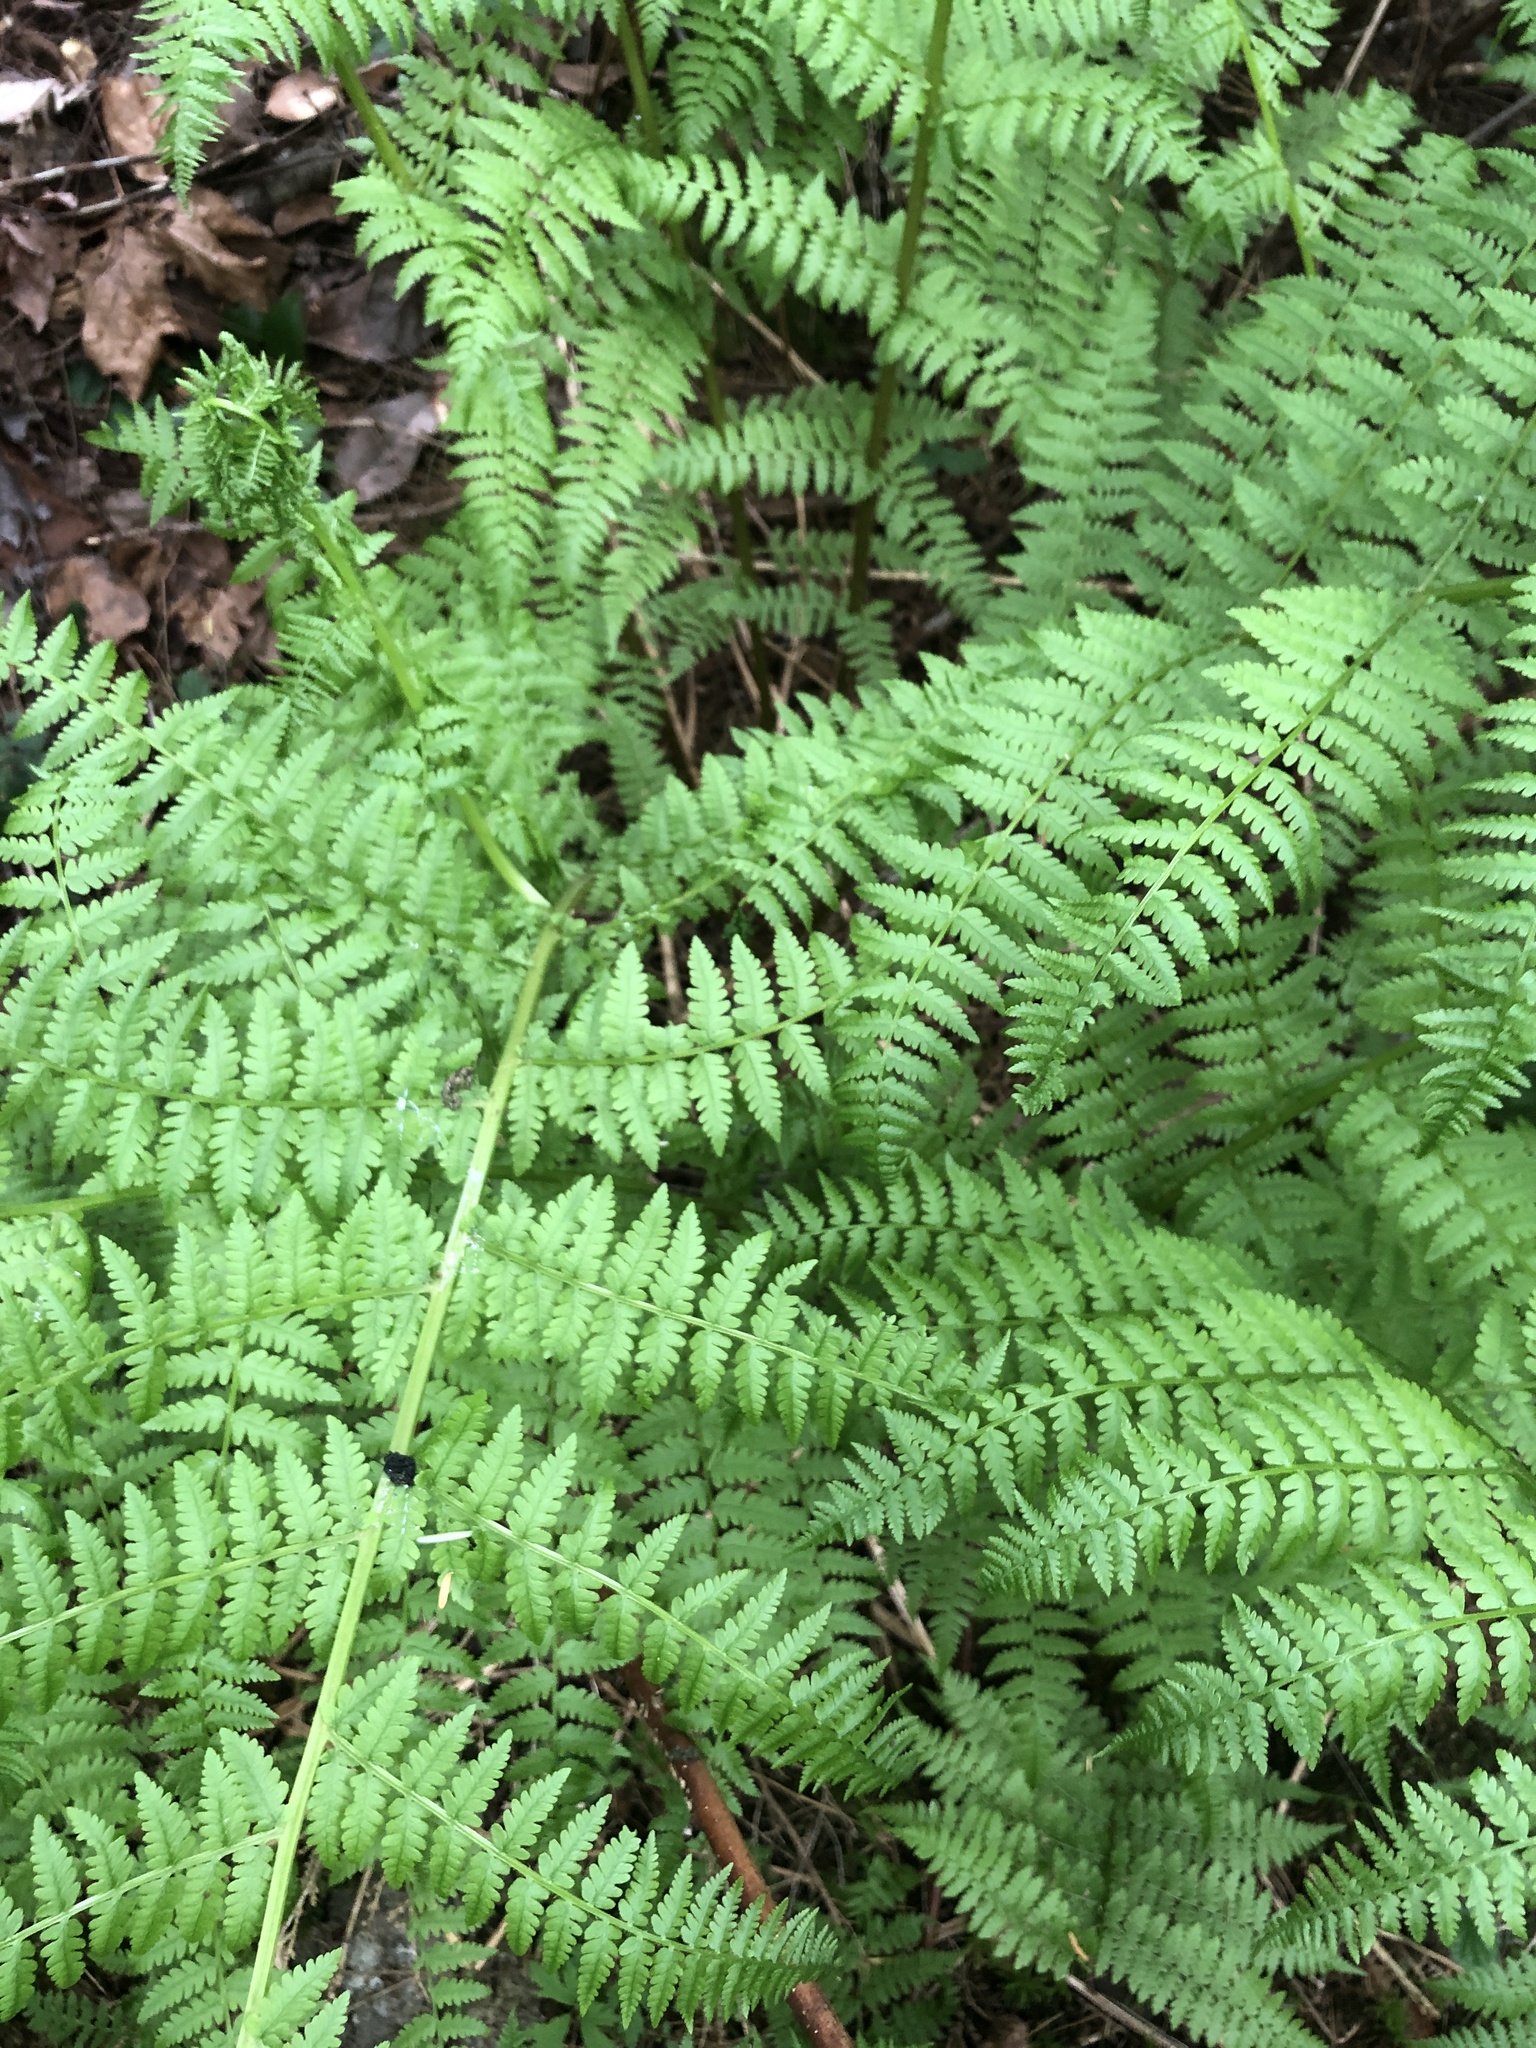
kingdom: Plantae
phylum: Tracheophyta
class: Polypodiopsida
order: Polypodiales
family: Athyriaceae
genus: Athyrium
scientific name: Athyrium cyclosorum
